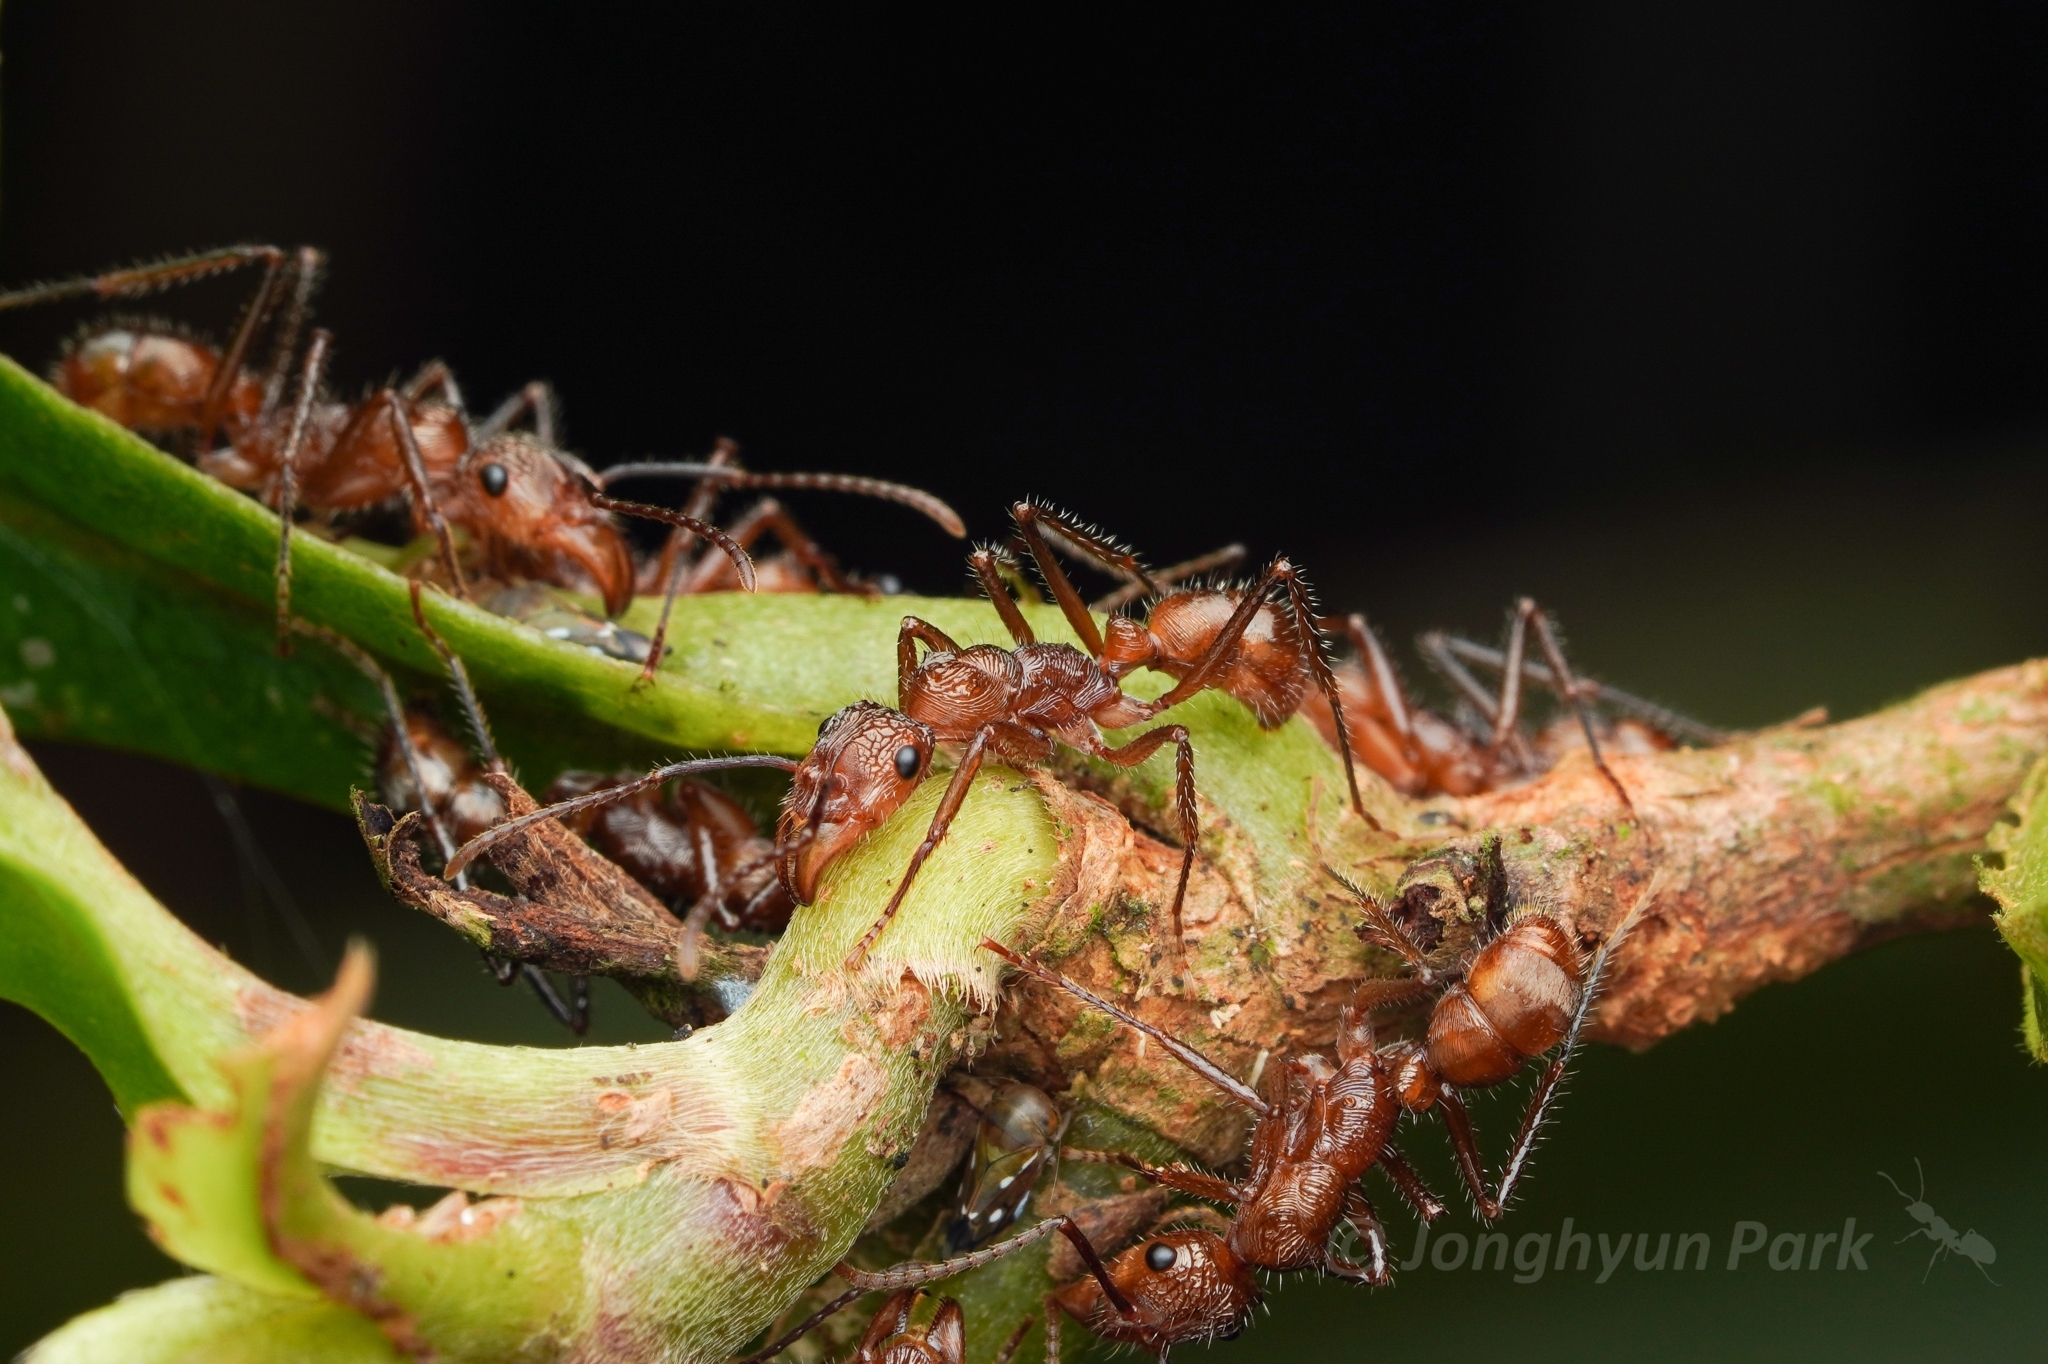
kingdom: Animalia
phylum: Arthropoda
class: Insecta
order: Hymenoptera
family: Formicidae
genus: Ectatomma
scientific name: Ectatomma tuberculatum
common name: Ant
